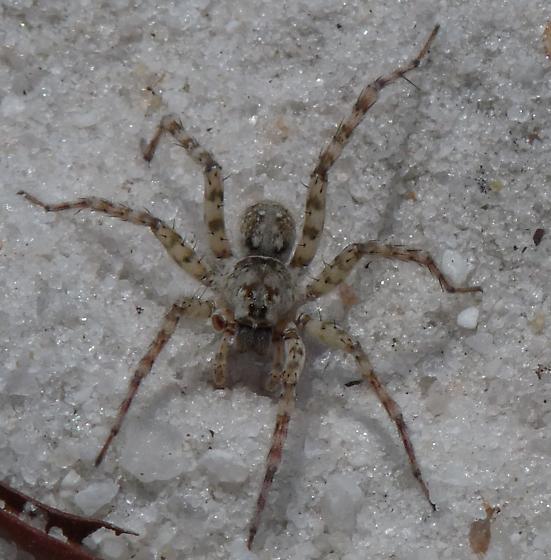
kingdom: Animalia
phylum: Arthropoda
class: Arachnida
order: Araneae
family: Lycosidae
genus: Arctosa
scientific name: Arctosa littoralis
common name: Wolf spiders
